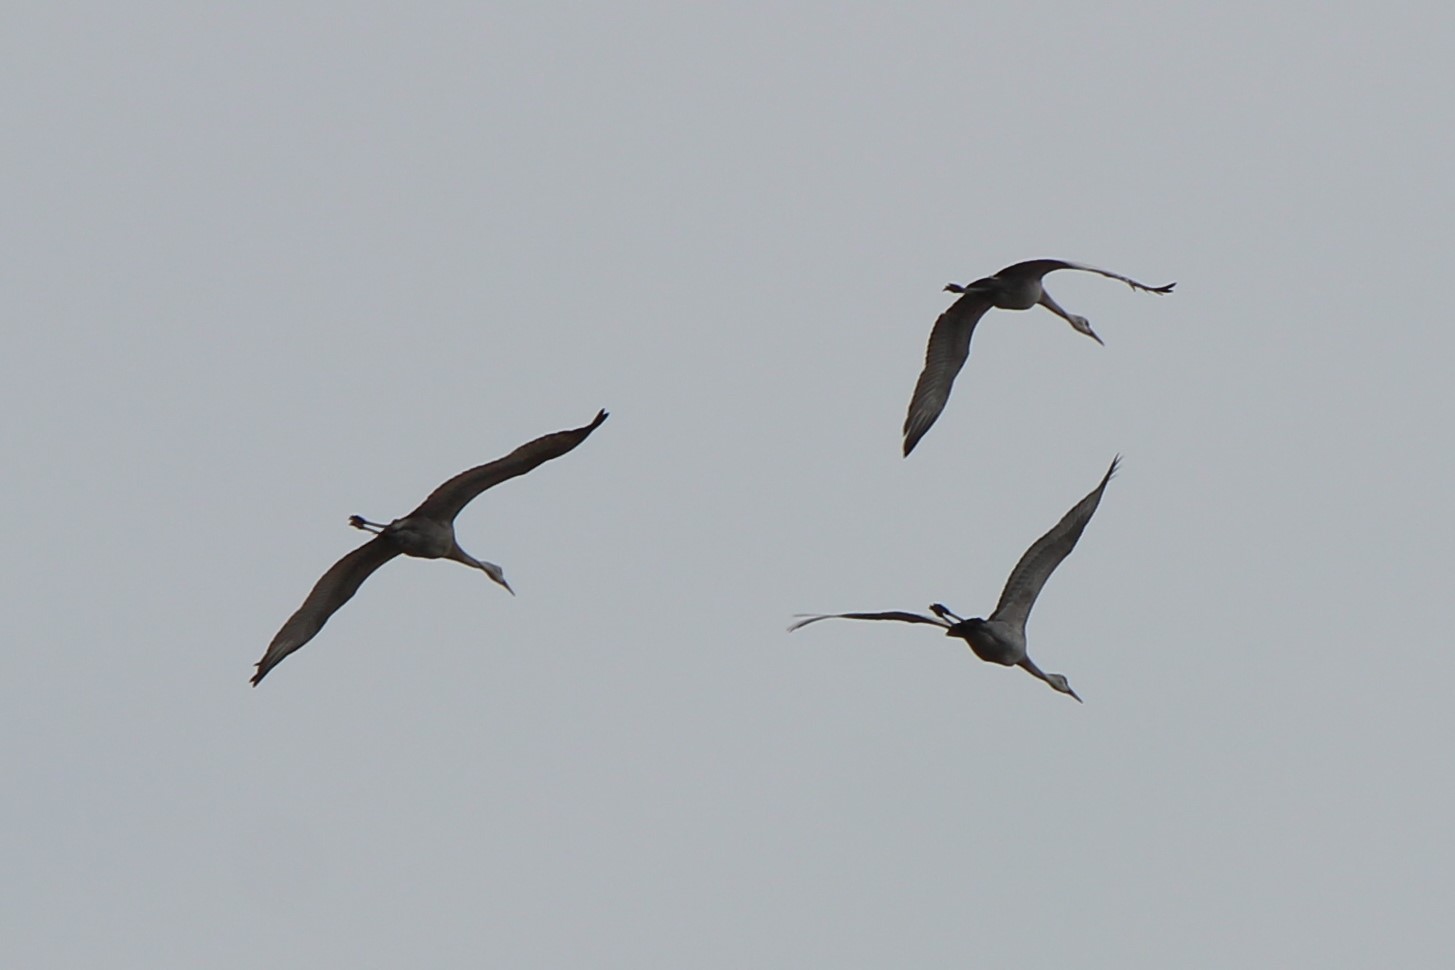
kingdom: Animalia
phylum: Chordata
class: Aves
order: Gruiformes
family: Gruidae
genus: Grus
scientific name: Grus canadensis
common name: Sandhill crane
